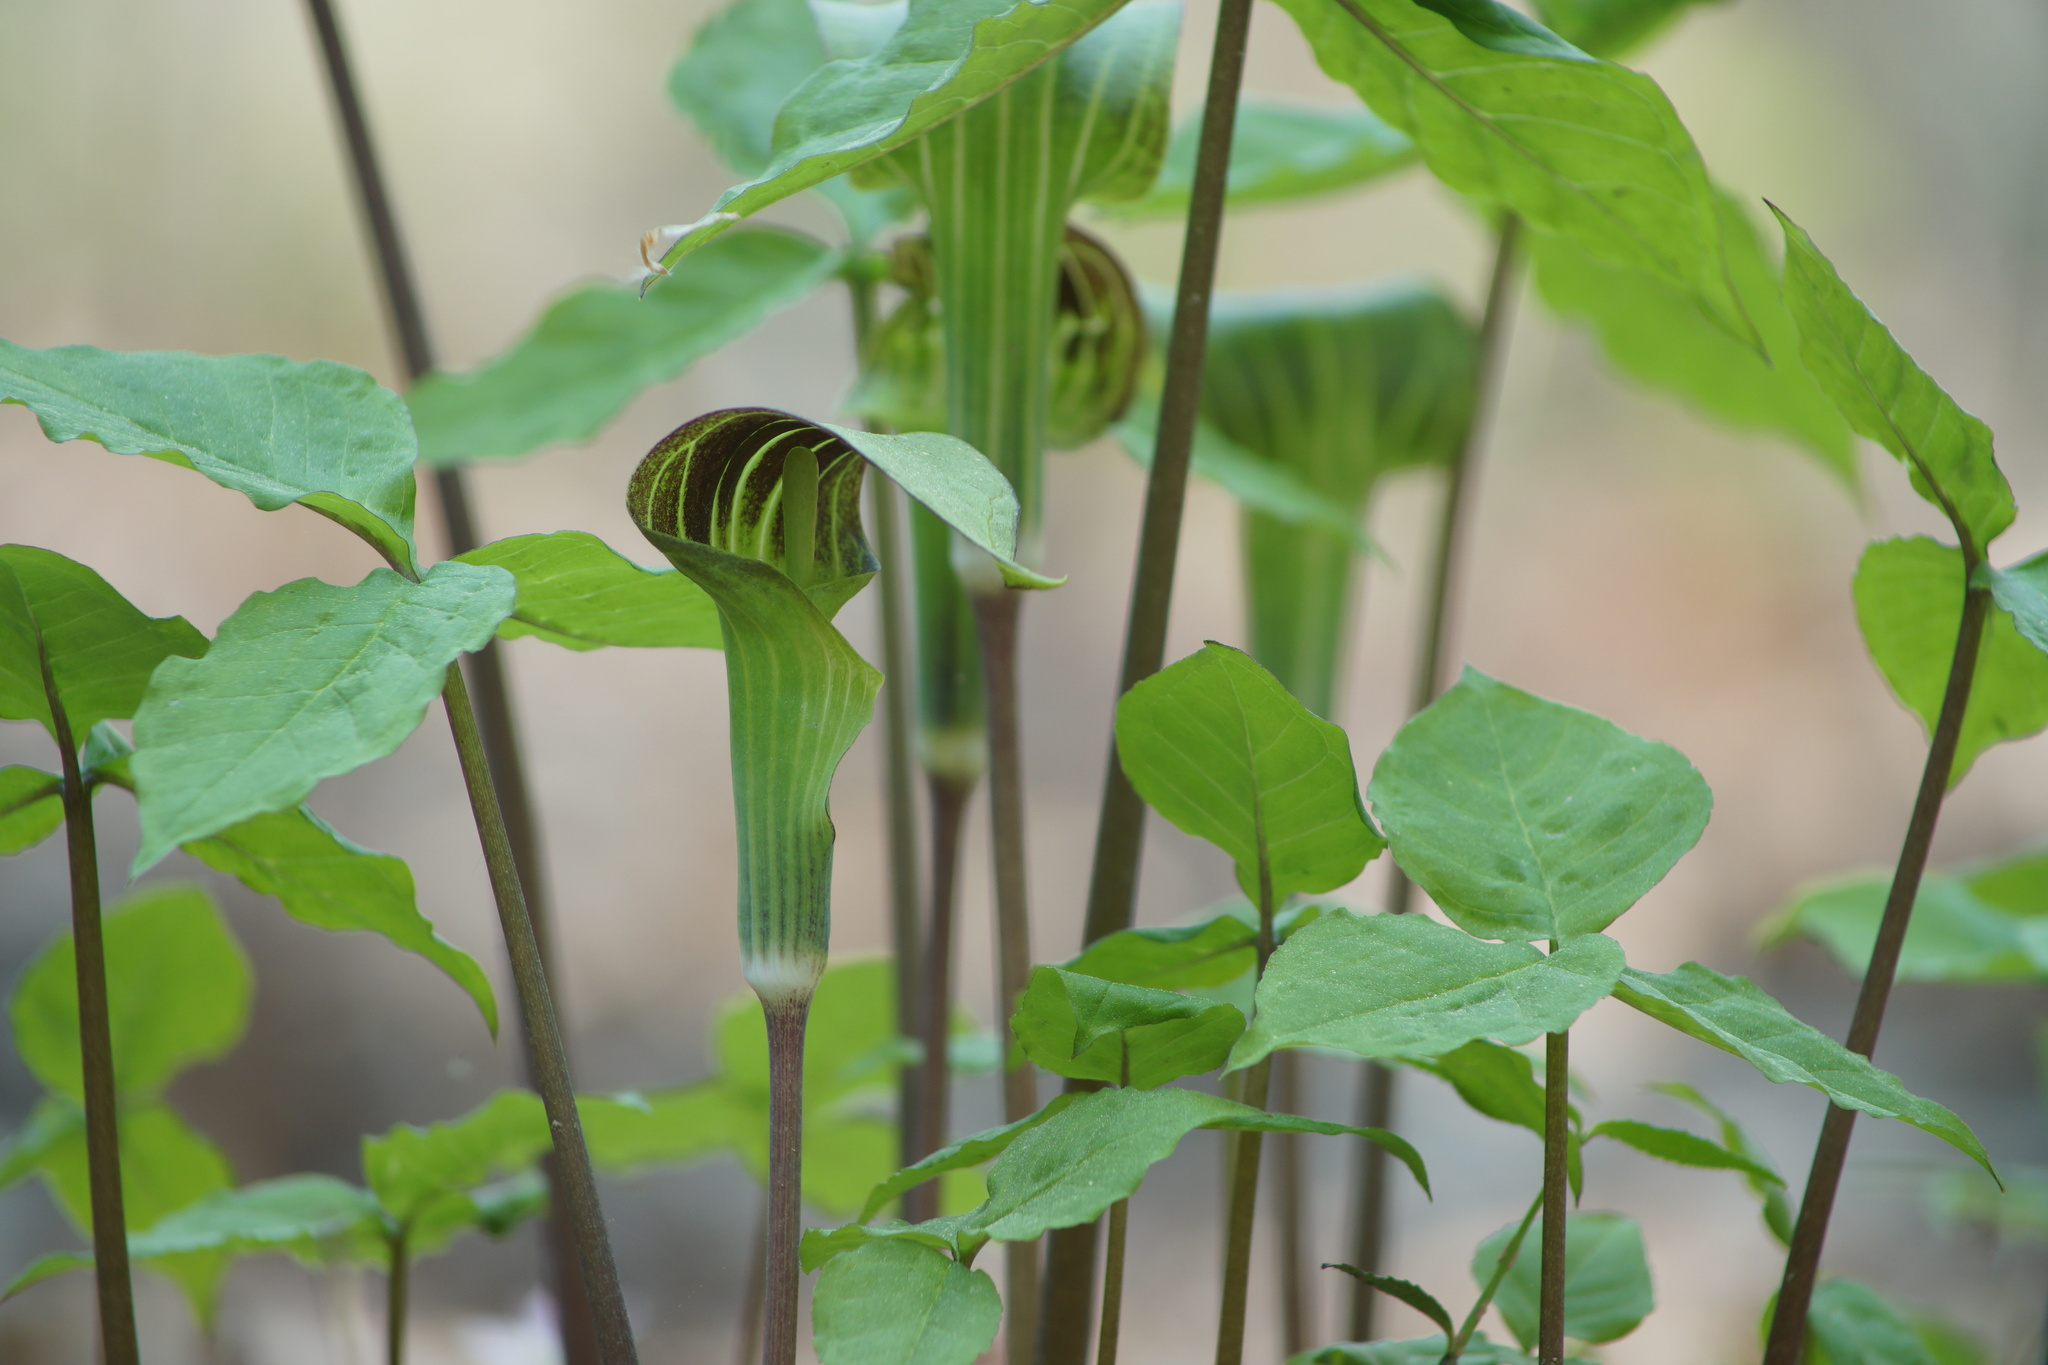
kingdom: Plantae
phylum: Tracheophyta
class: Liliopsida
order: Alismatales
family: Araceae
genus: Arisaema
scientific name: Arisaema triphyllum
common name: Jack-in-the-pulpit
